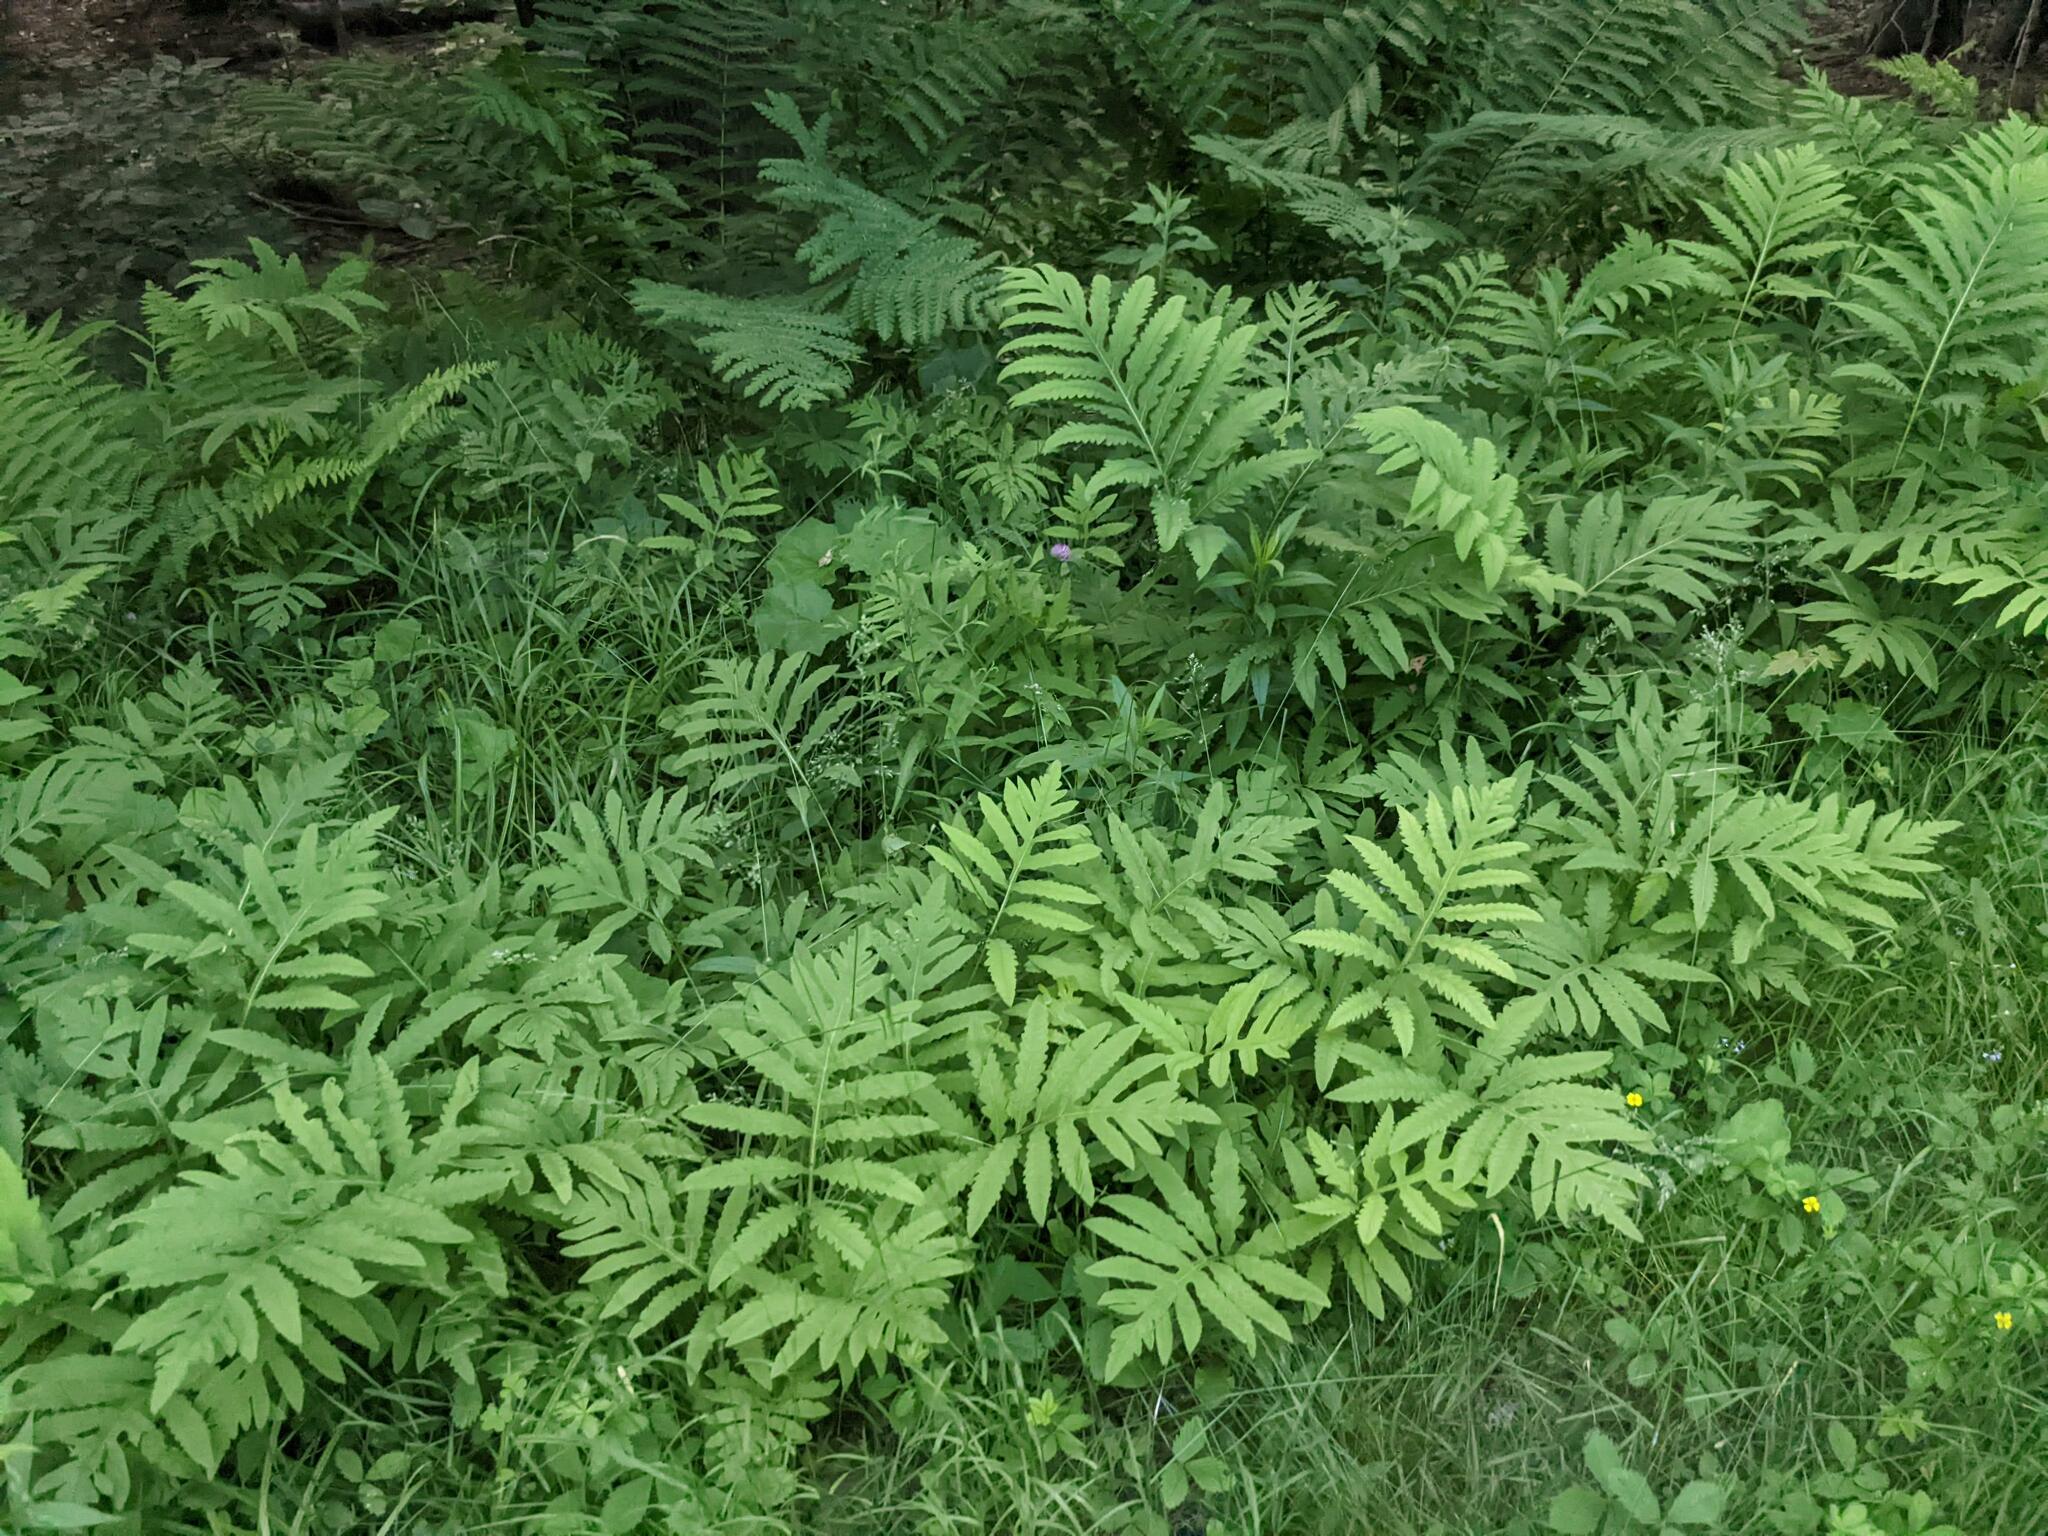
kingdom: Plantae
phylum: Tracheophyta
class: Polypodiopsida
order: Polypodiales
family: Onocleaceae
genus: Onoclea
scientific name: Onoclea sensibilis
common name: Sensitive fern
